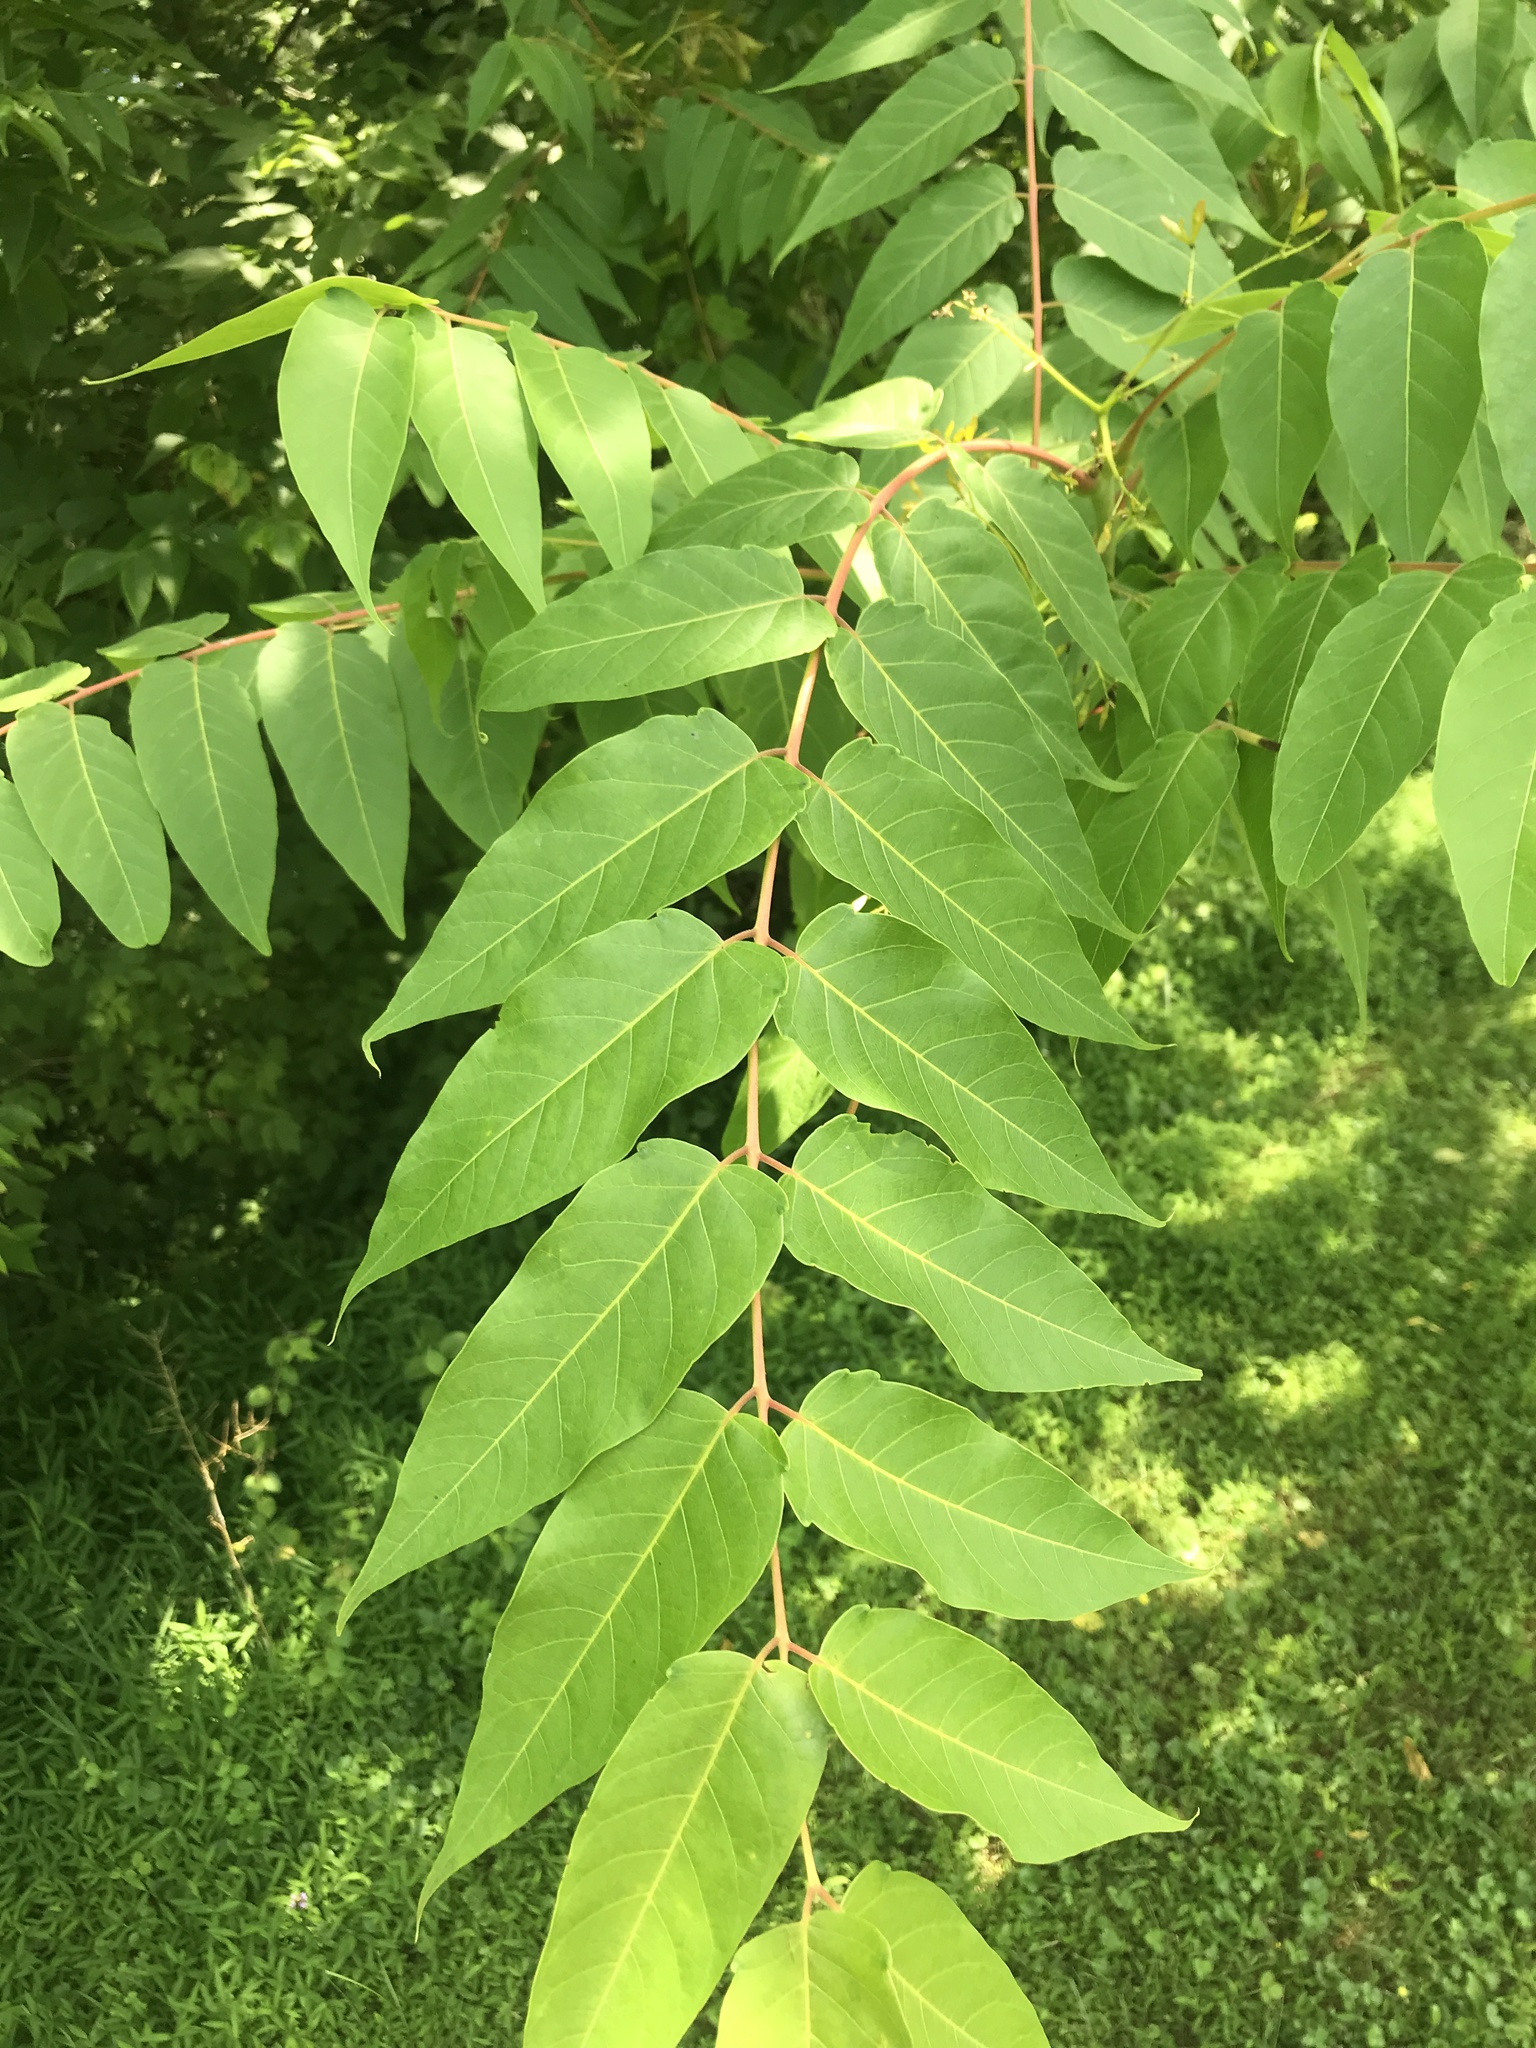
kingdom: Plantae
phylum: Tracheophyta
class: Magnoliopsida
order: Sapindales
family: Simaroubaceae
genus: Ailanthus
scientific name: Ailanthus altissima
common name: Tree-of-heaven
